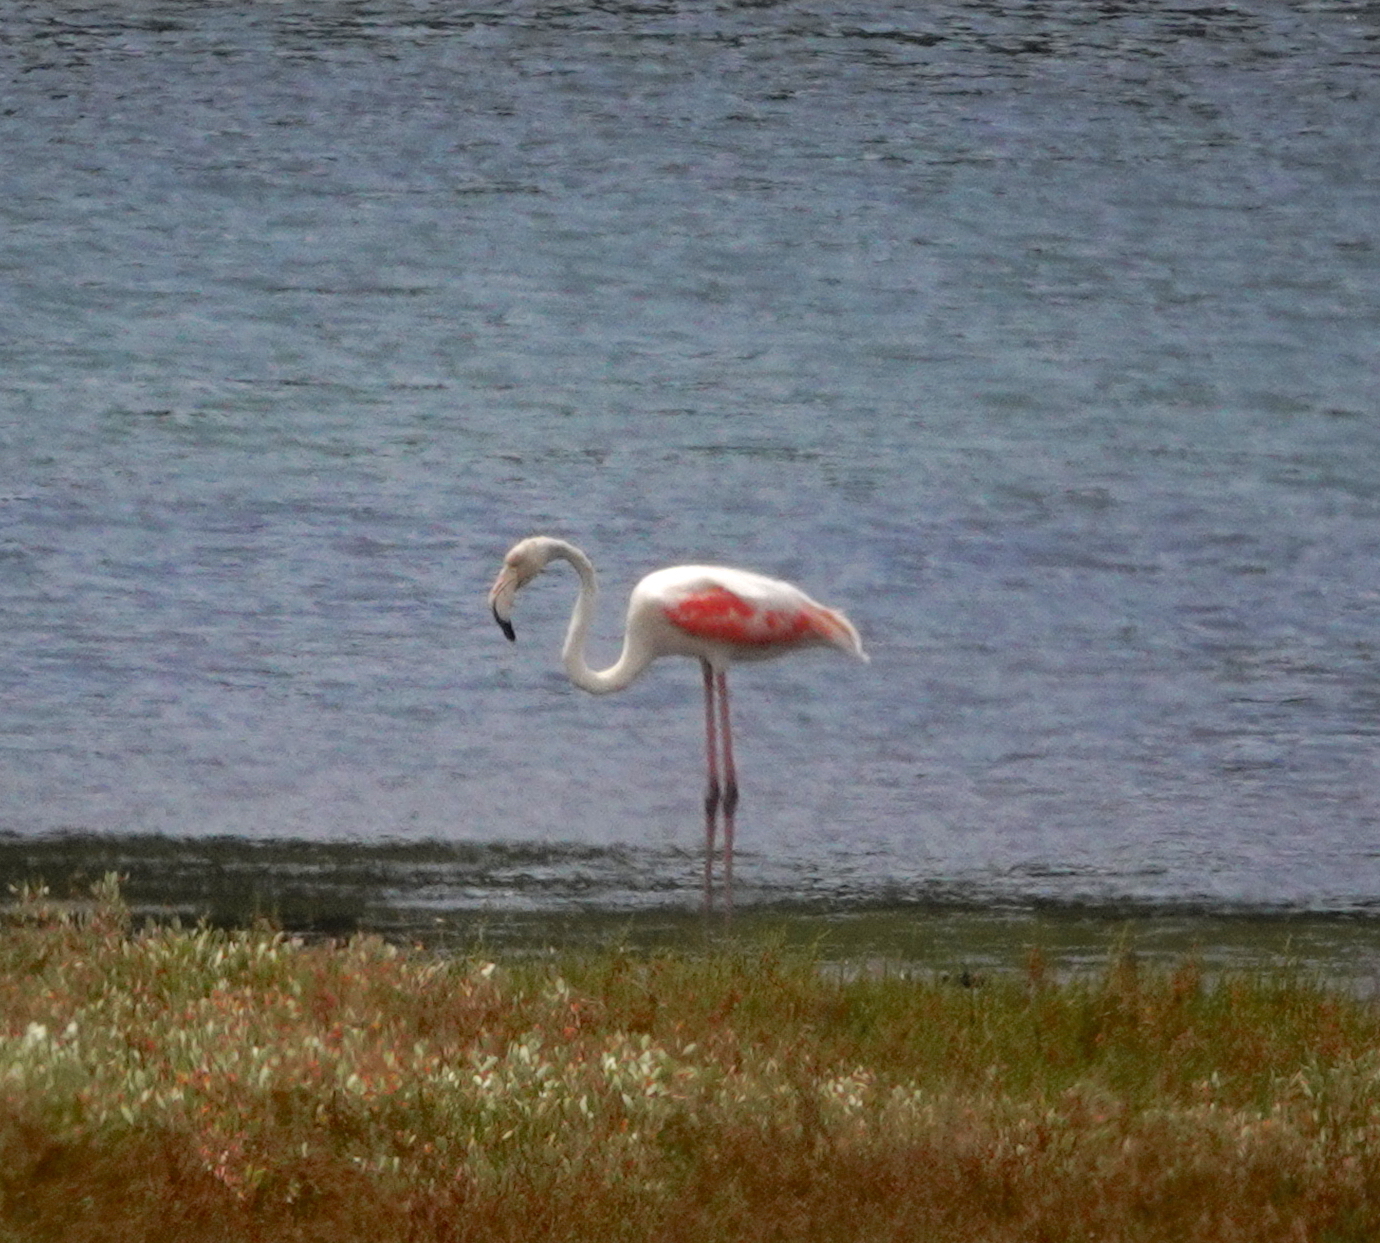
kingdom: Animalia
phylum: Chordata
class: Aves
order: Phoenicopteriformes
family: Phoenicopteridae
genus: Phoenicopterus
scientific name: Phoenicopterus roseus
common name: Greater flamingo
